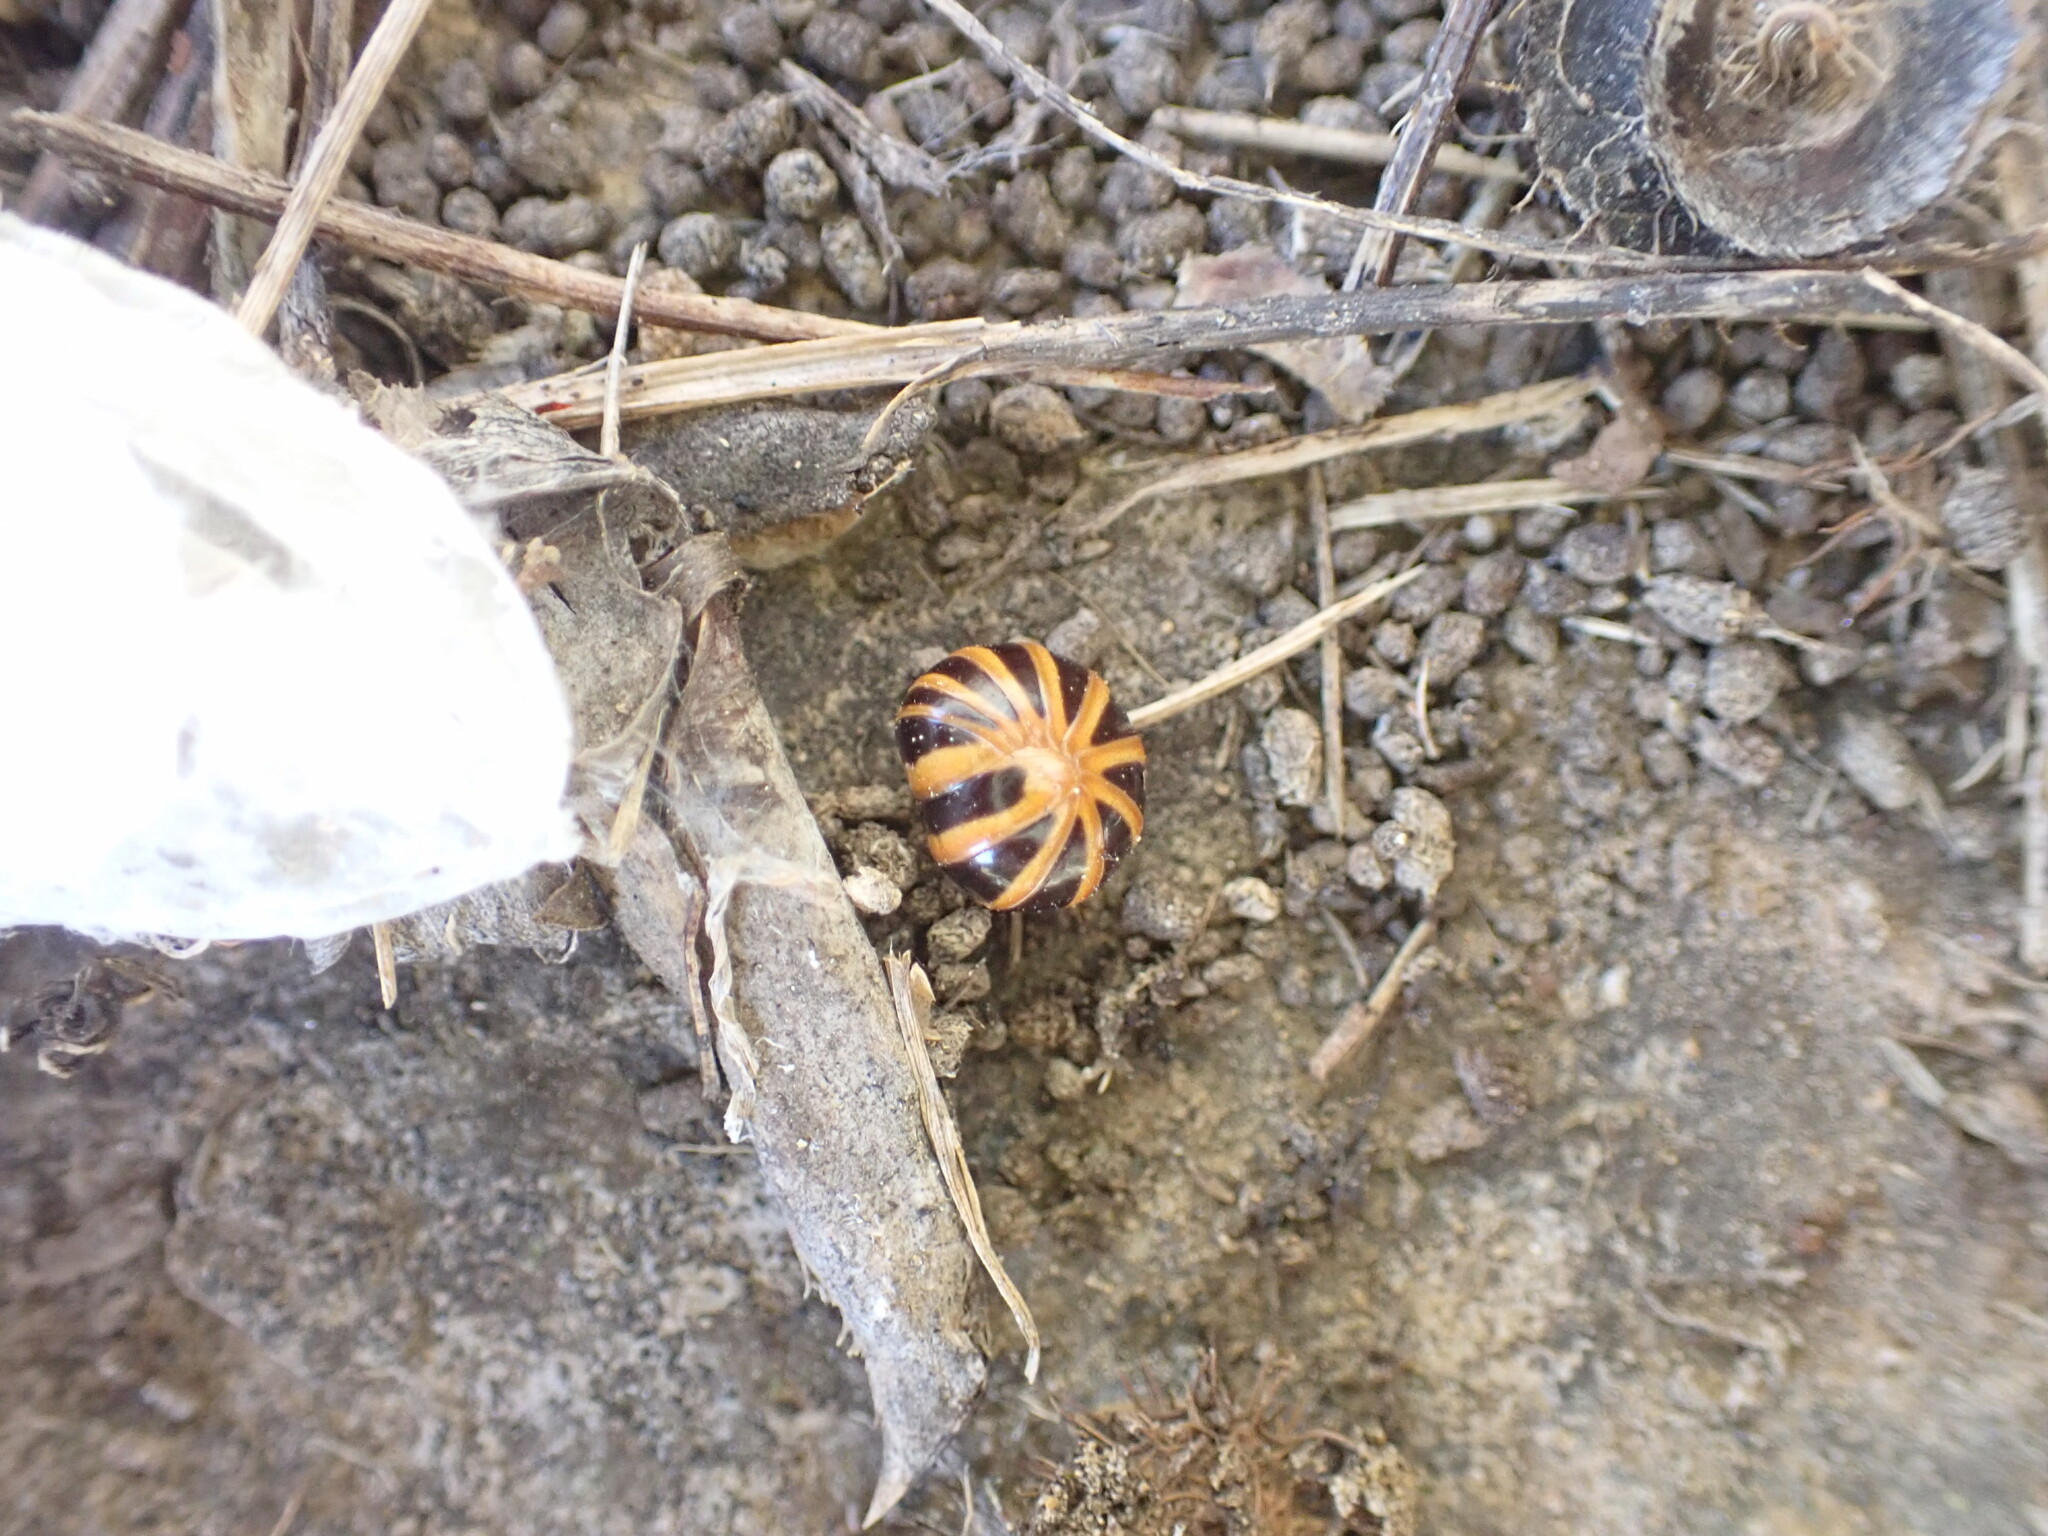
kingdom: Animalia
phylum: Arthropoda
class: Diplopoda
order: Glomerida
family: Glomeridae
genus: Glomeris
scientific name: Glomeris annulata
